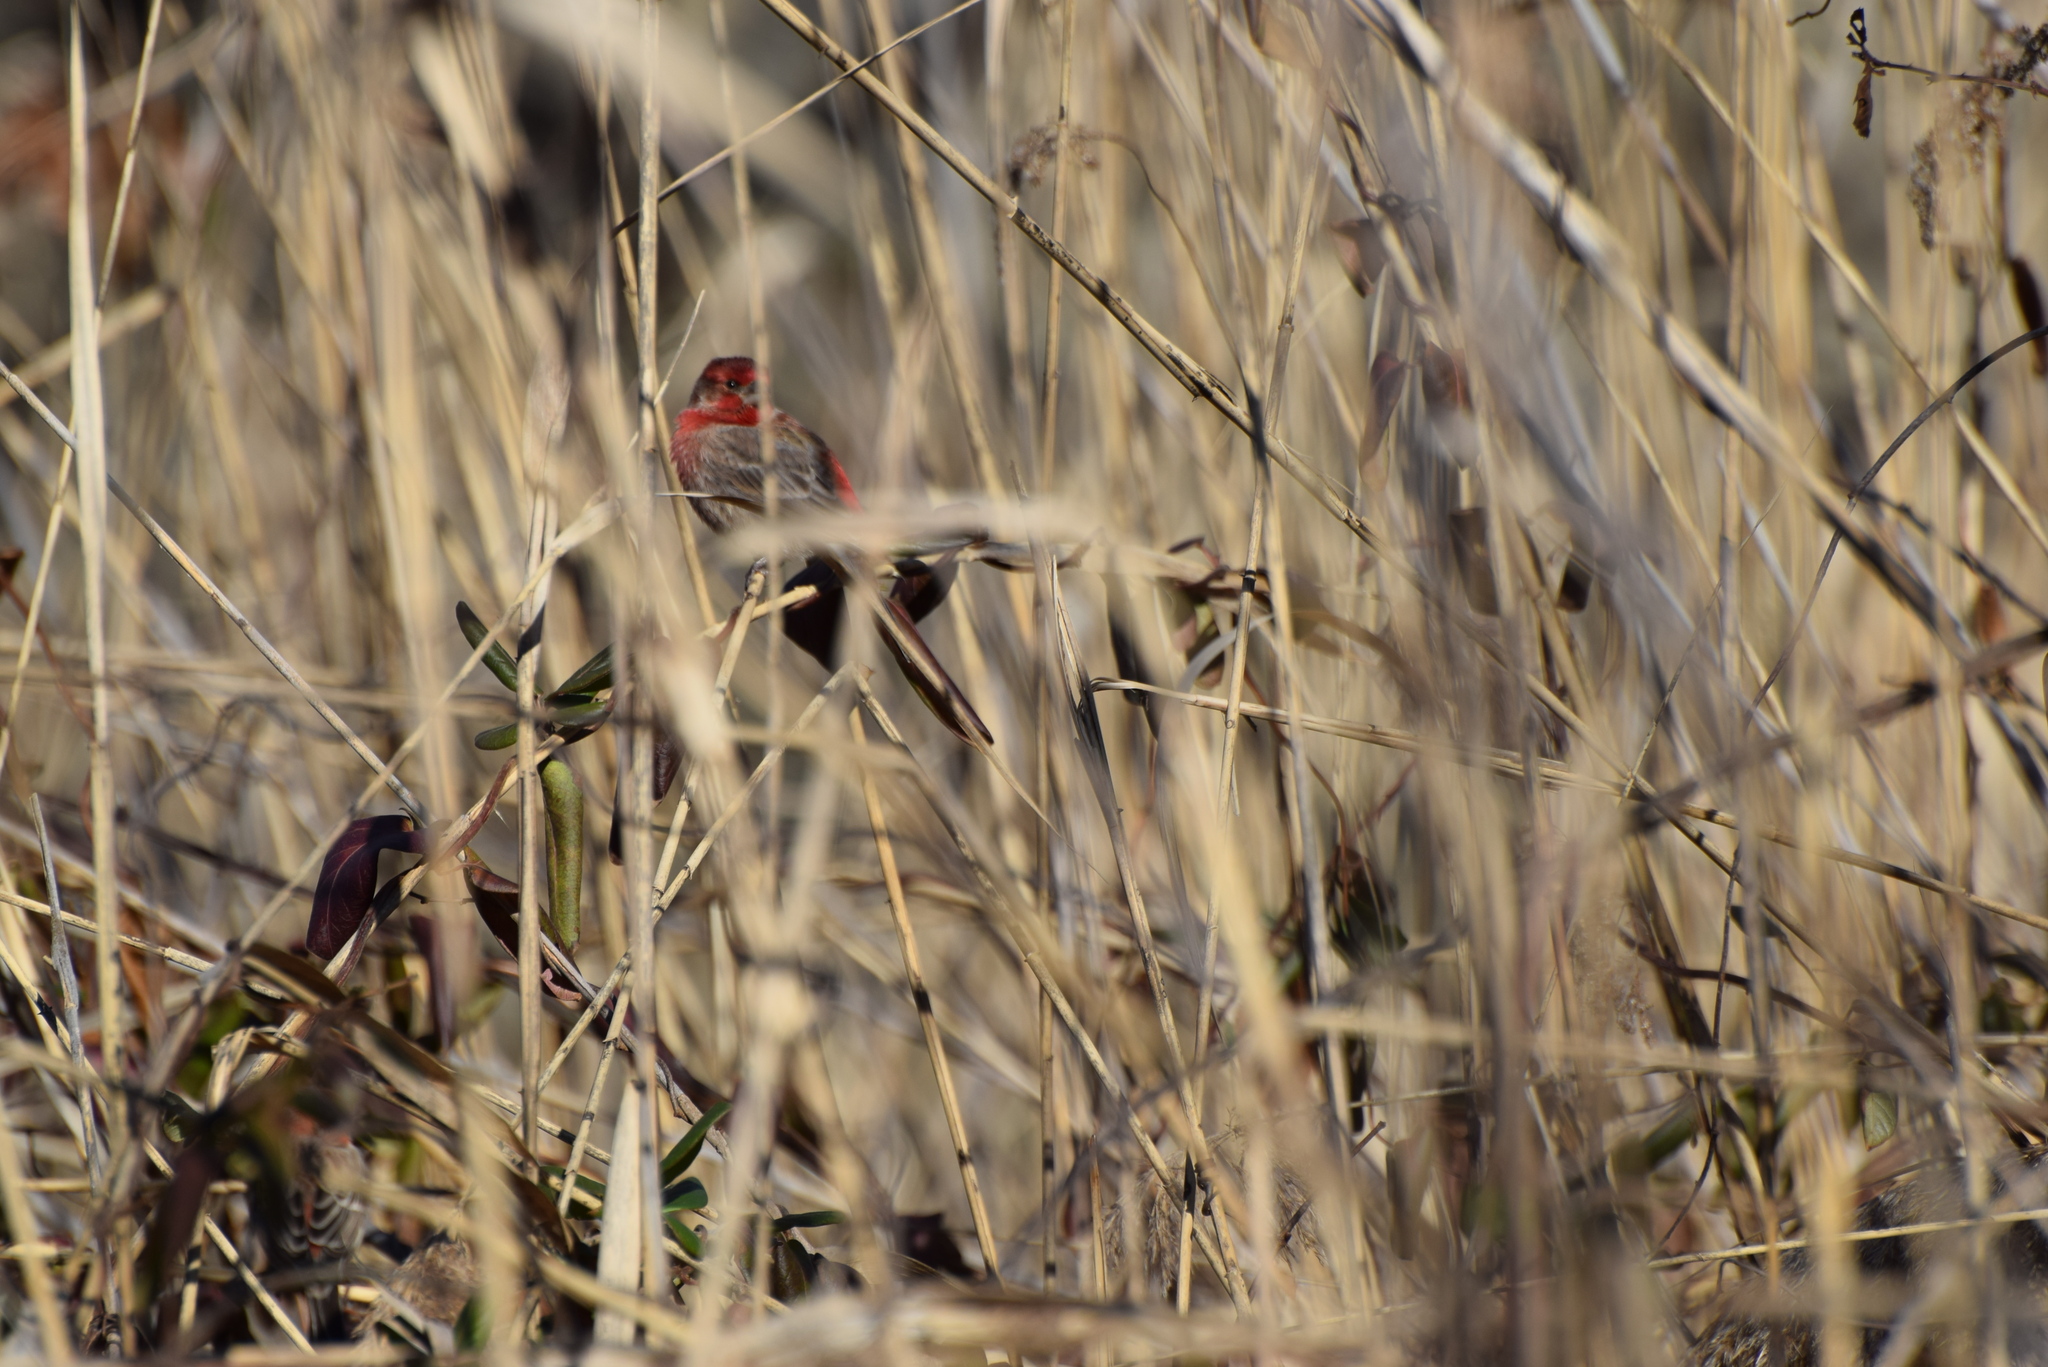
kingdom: Animalia
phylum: Chordata
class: Aves
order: Passeriformes
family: Fringillidae
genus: Haemorhous
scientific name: Haemorhous mexicanus
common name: House finch
